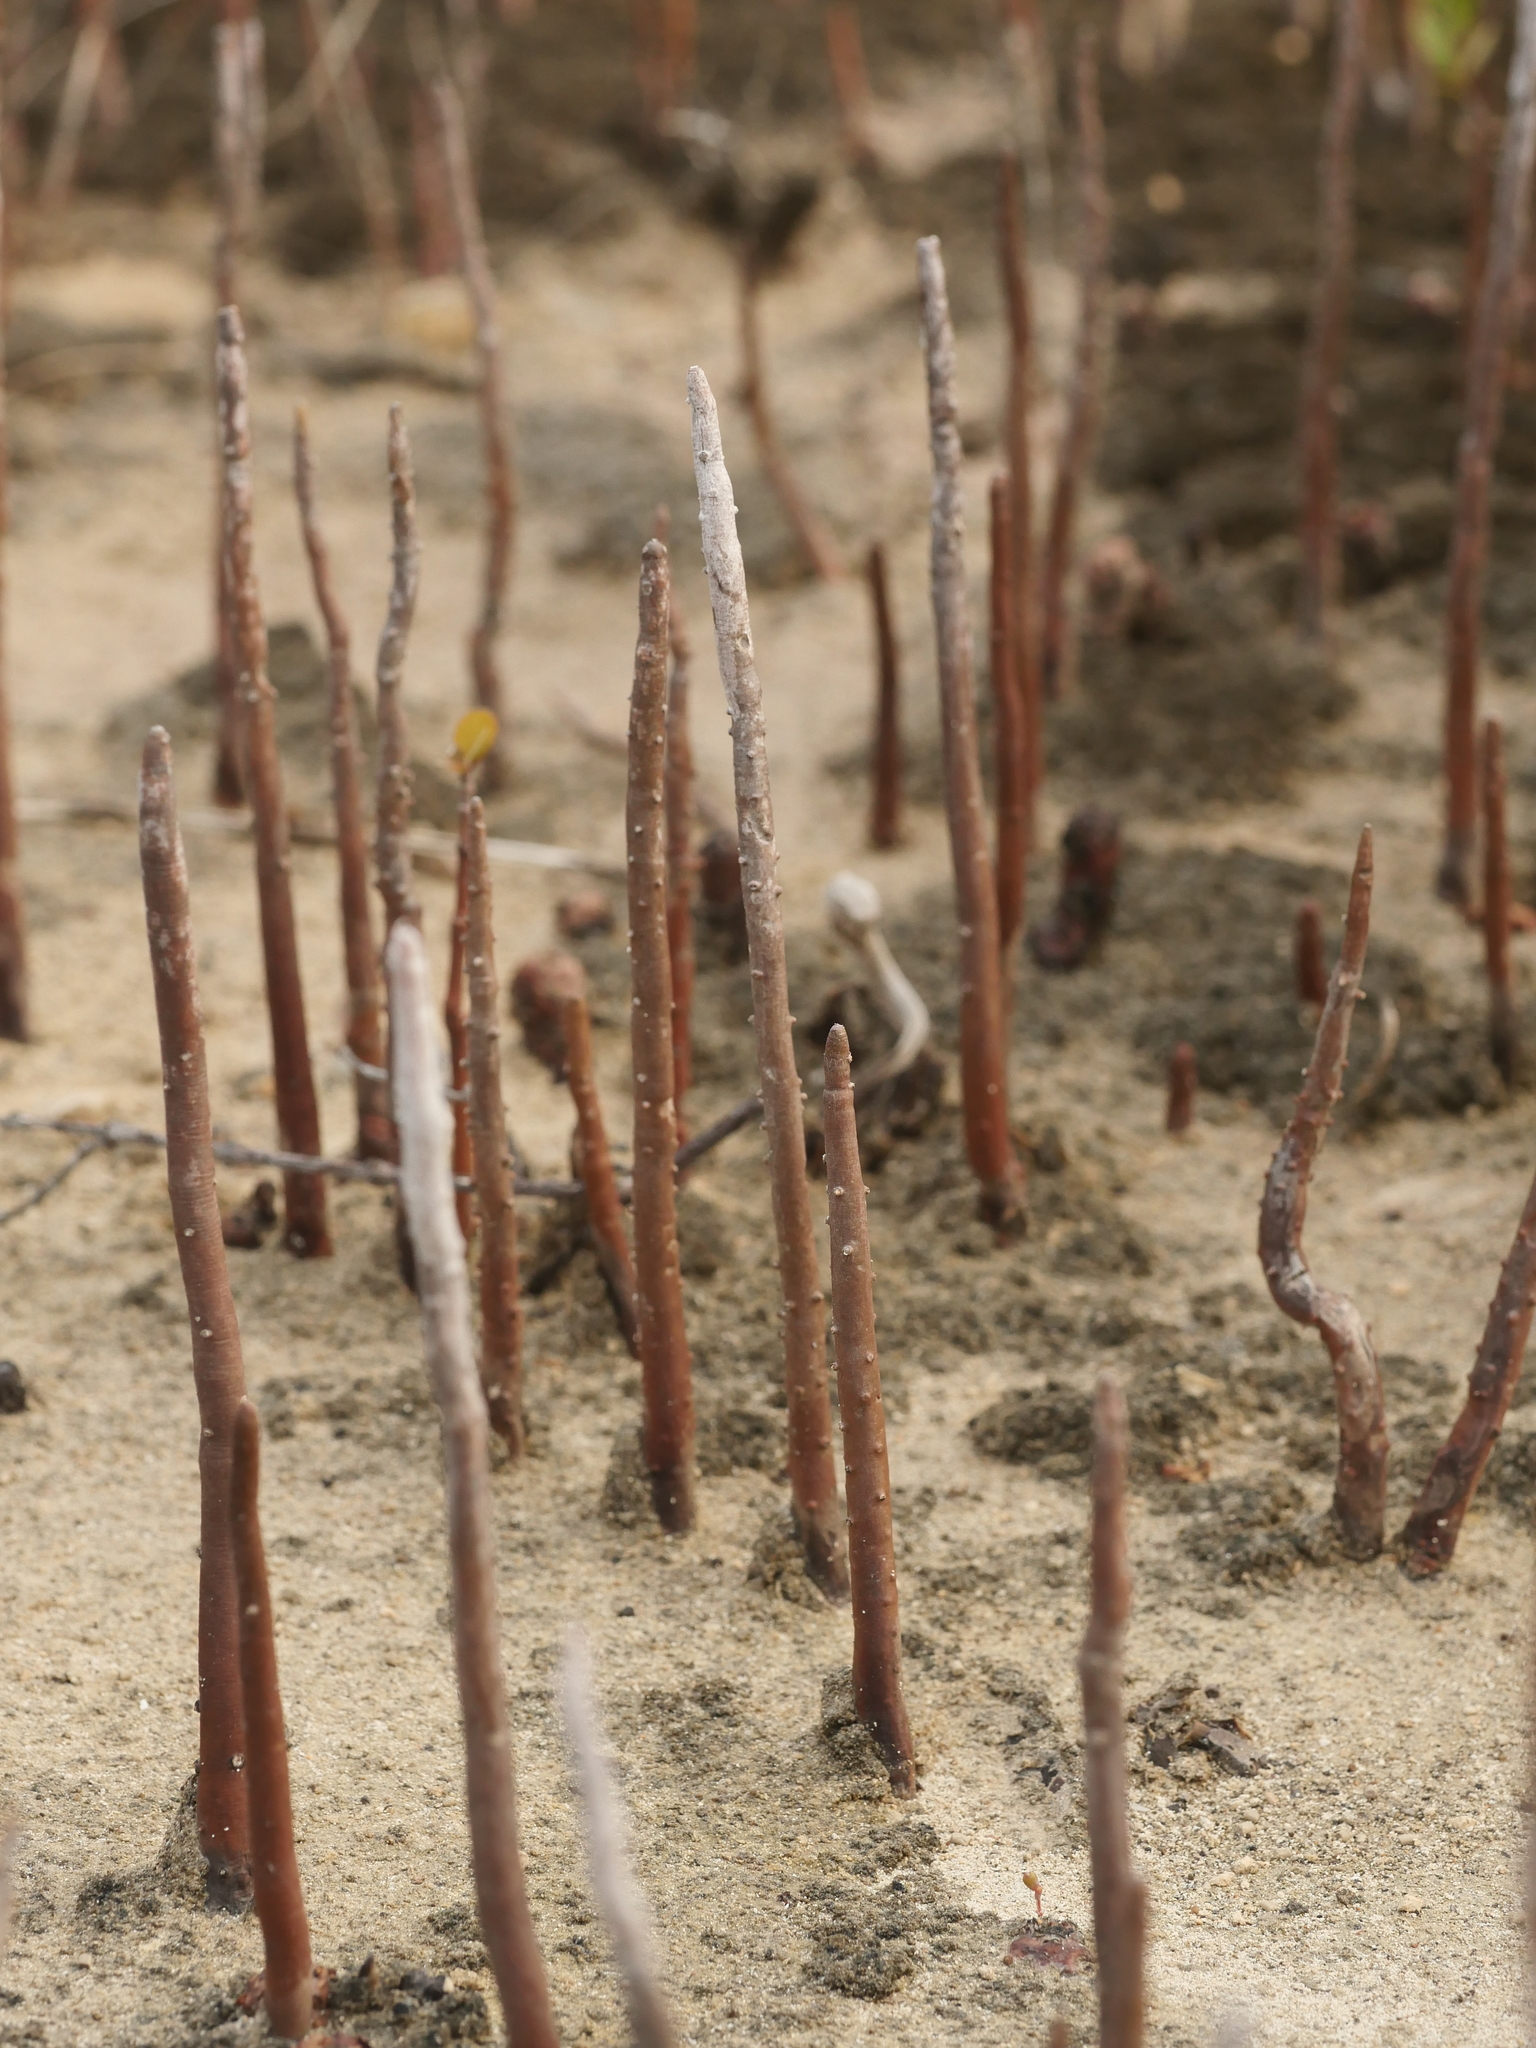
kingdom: Plantae
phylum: Tracheophyta
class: Magnoliopsida
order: Lamiales
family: Acanthaceae
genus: Avicennia
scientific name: Avicennia germinans
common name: Black mangrove
